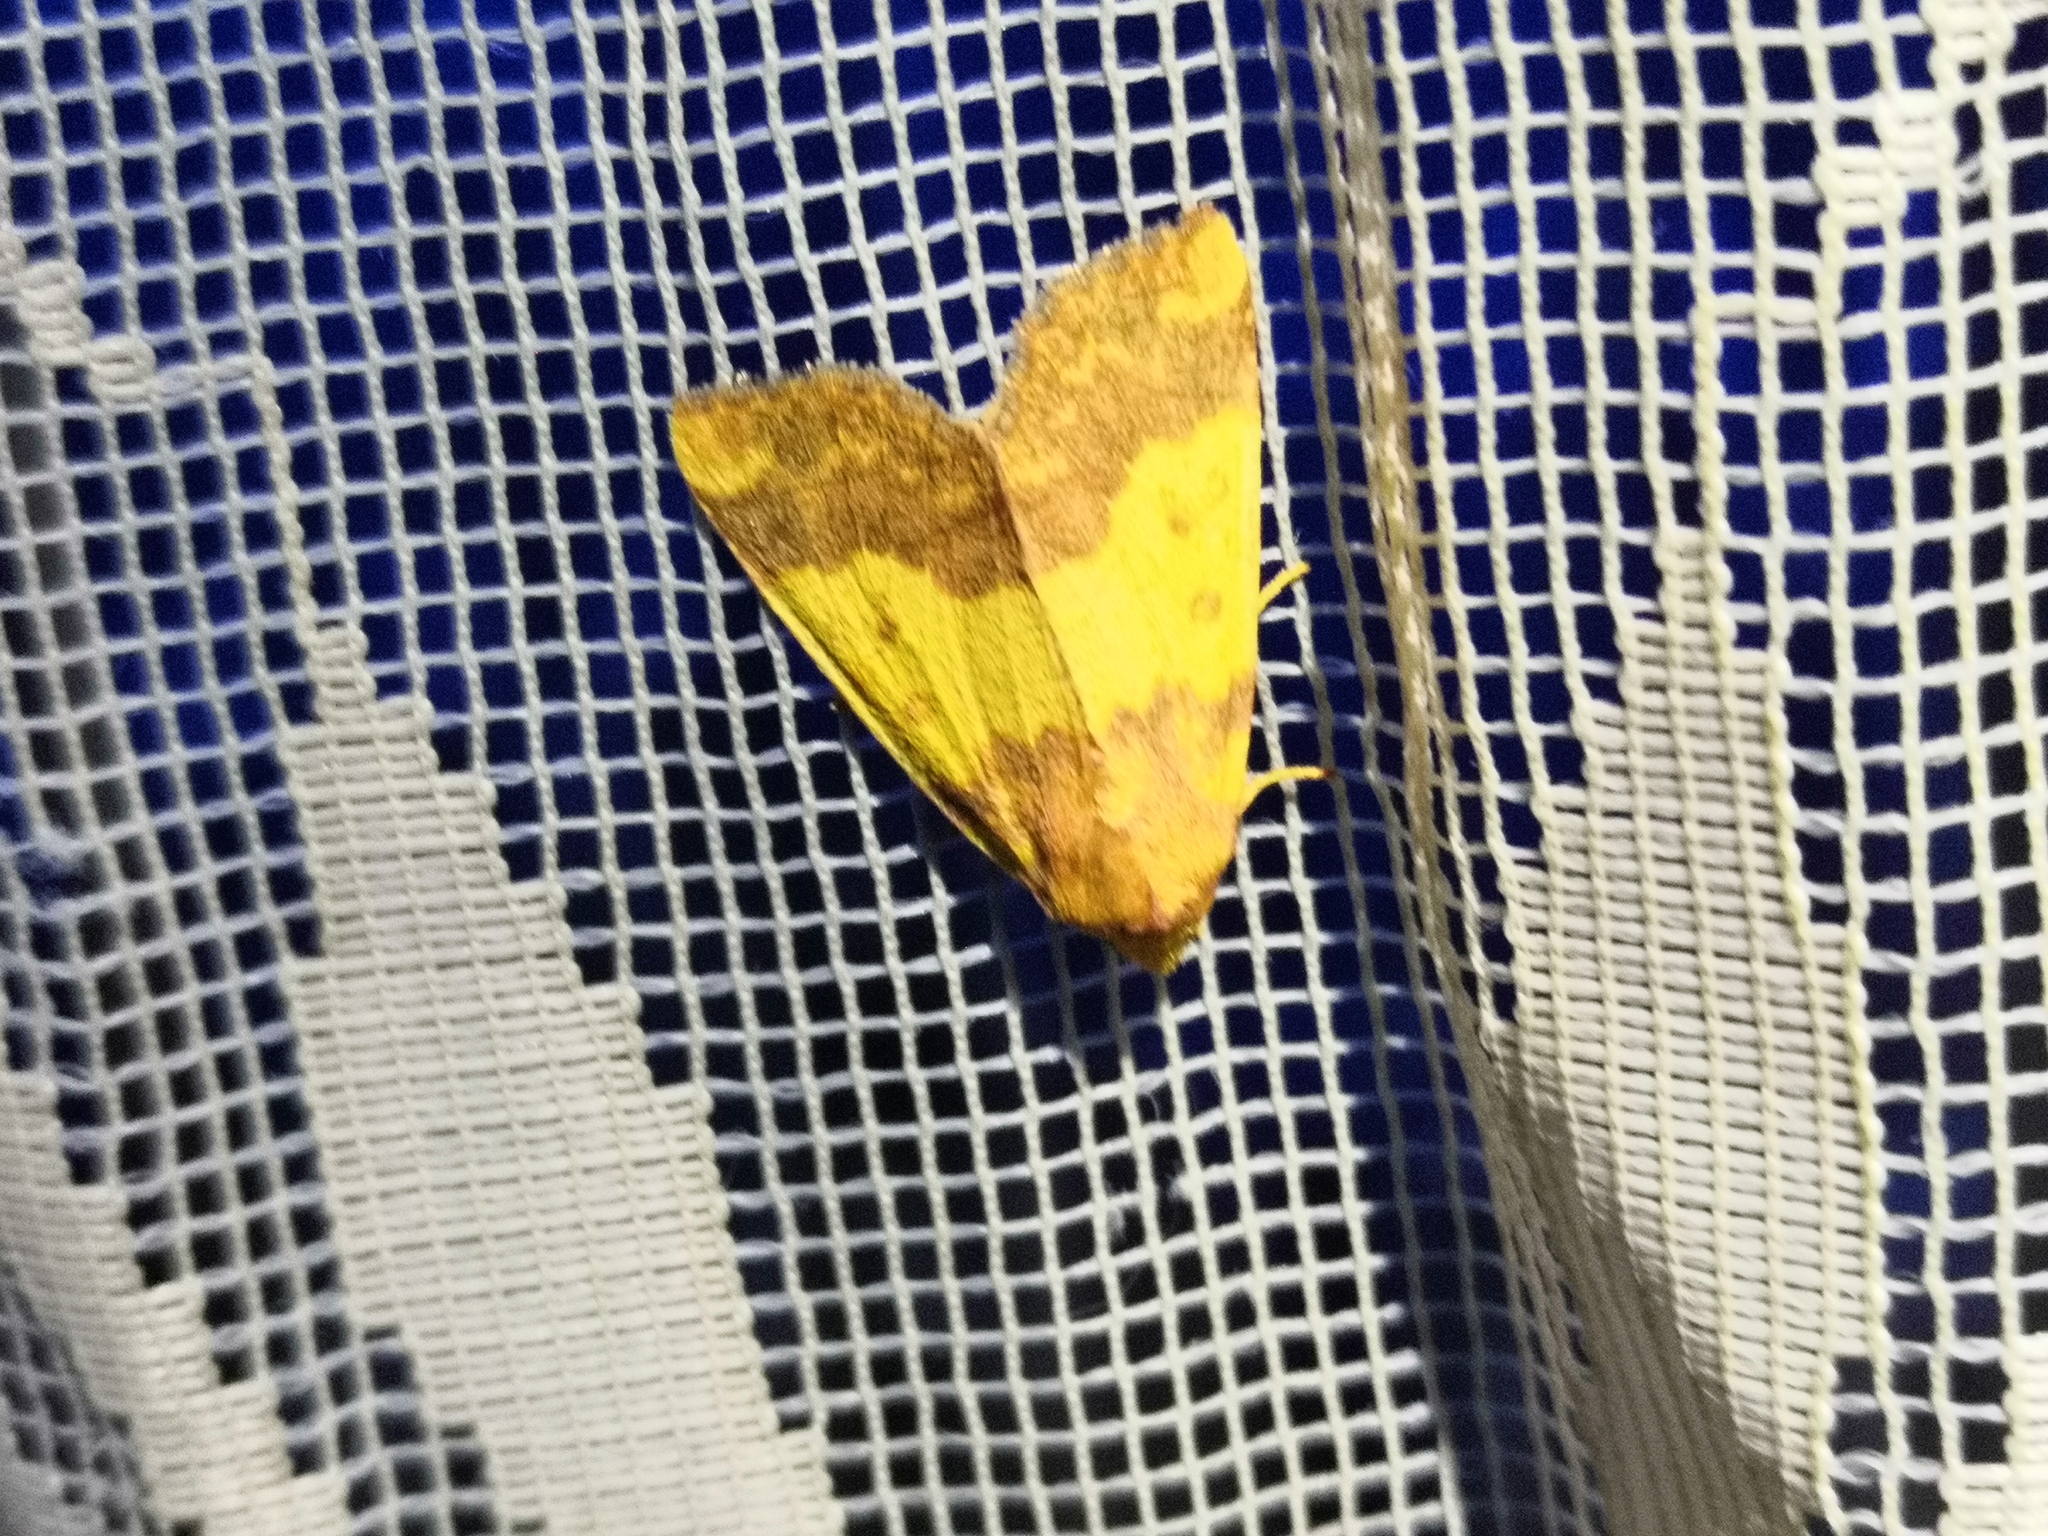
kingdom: Animalia
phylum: Arthropoda
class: Insecta
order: Lepidoptera
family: Noctuidae
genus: Tiliacea
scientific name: Tiliacea aurago
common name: Barred sallow
